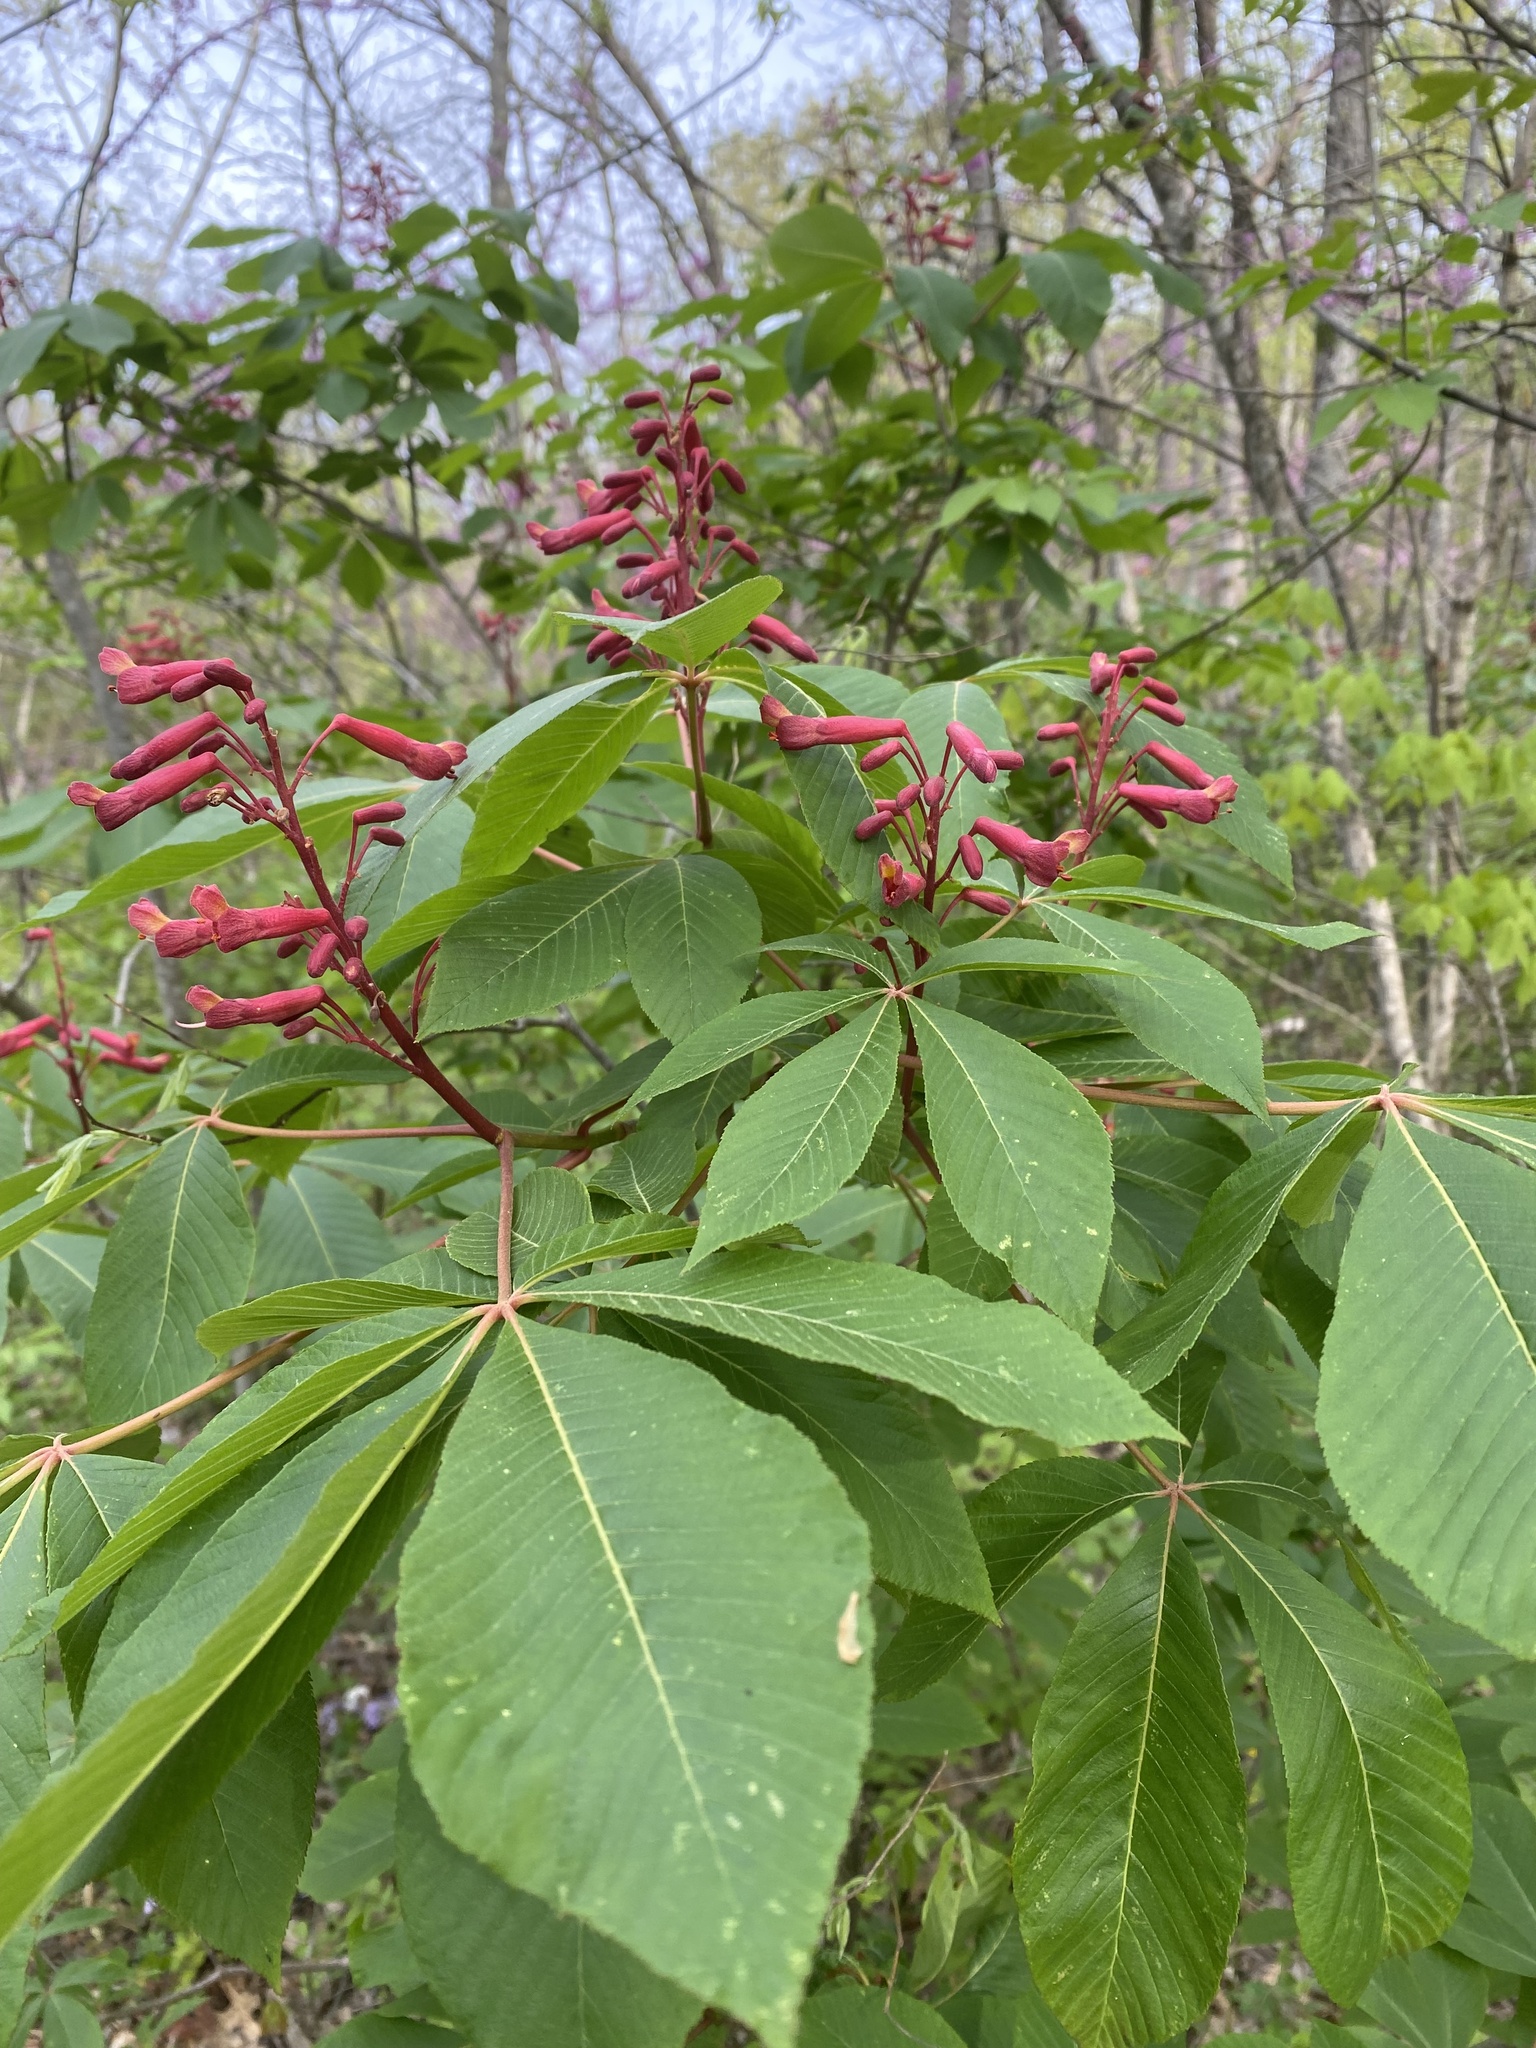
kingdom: Plantae
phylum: Tracheophyta
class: Magnoliopsida
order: Sapindales
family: Sapindaceae
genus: Aesculus
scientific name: Aesculus pavia
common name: Red buckeye
